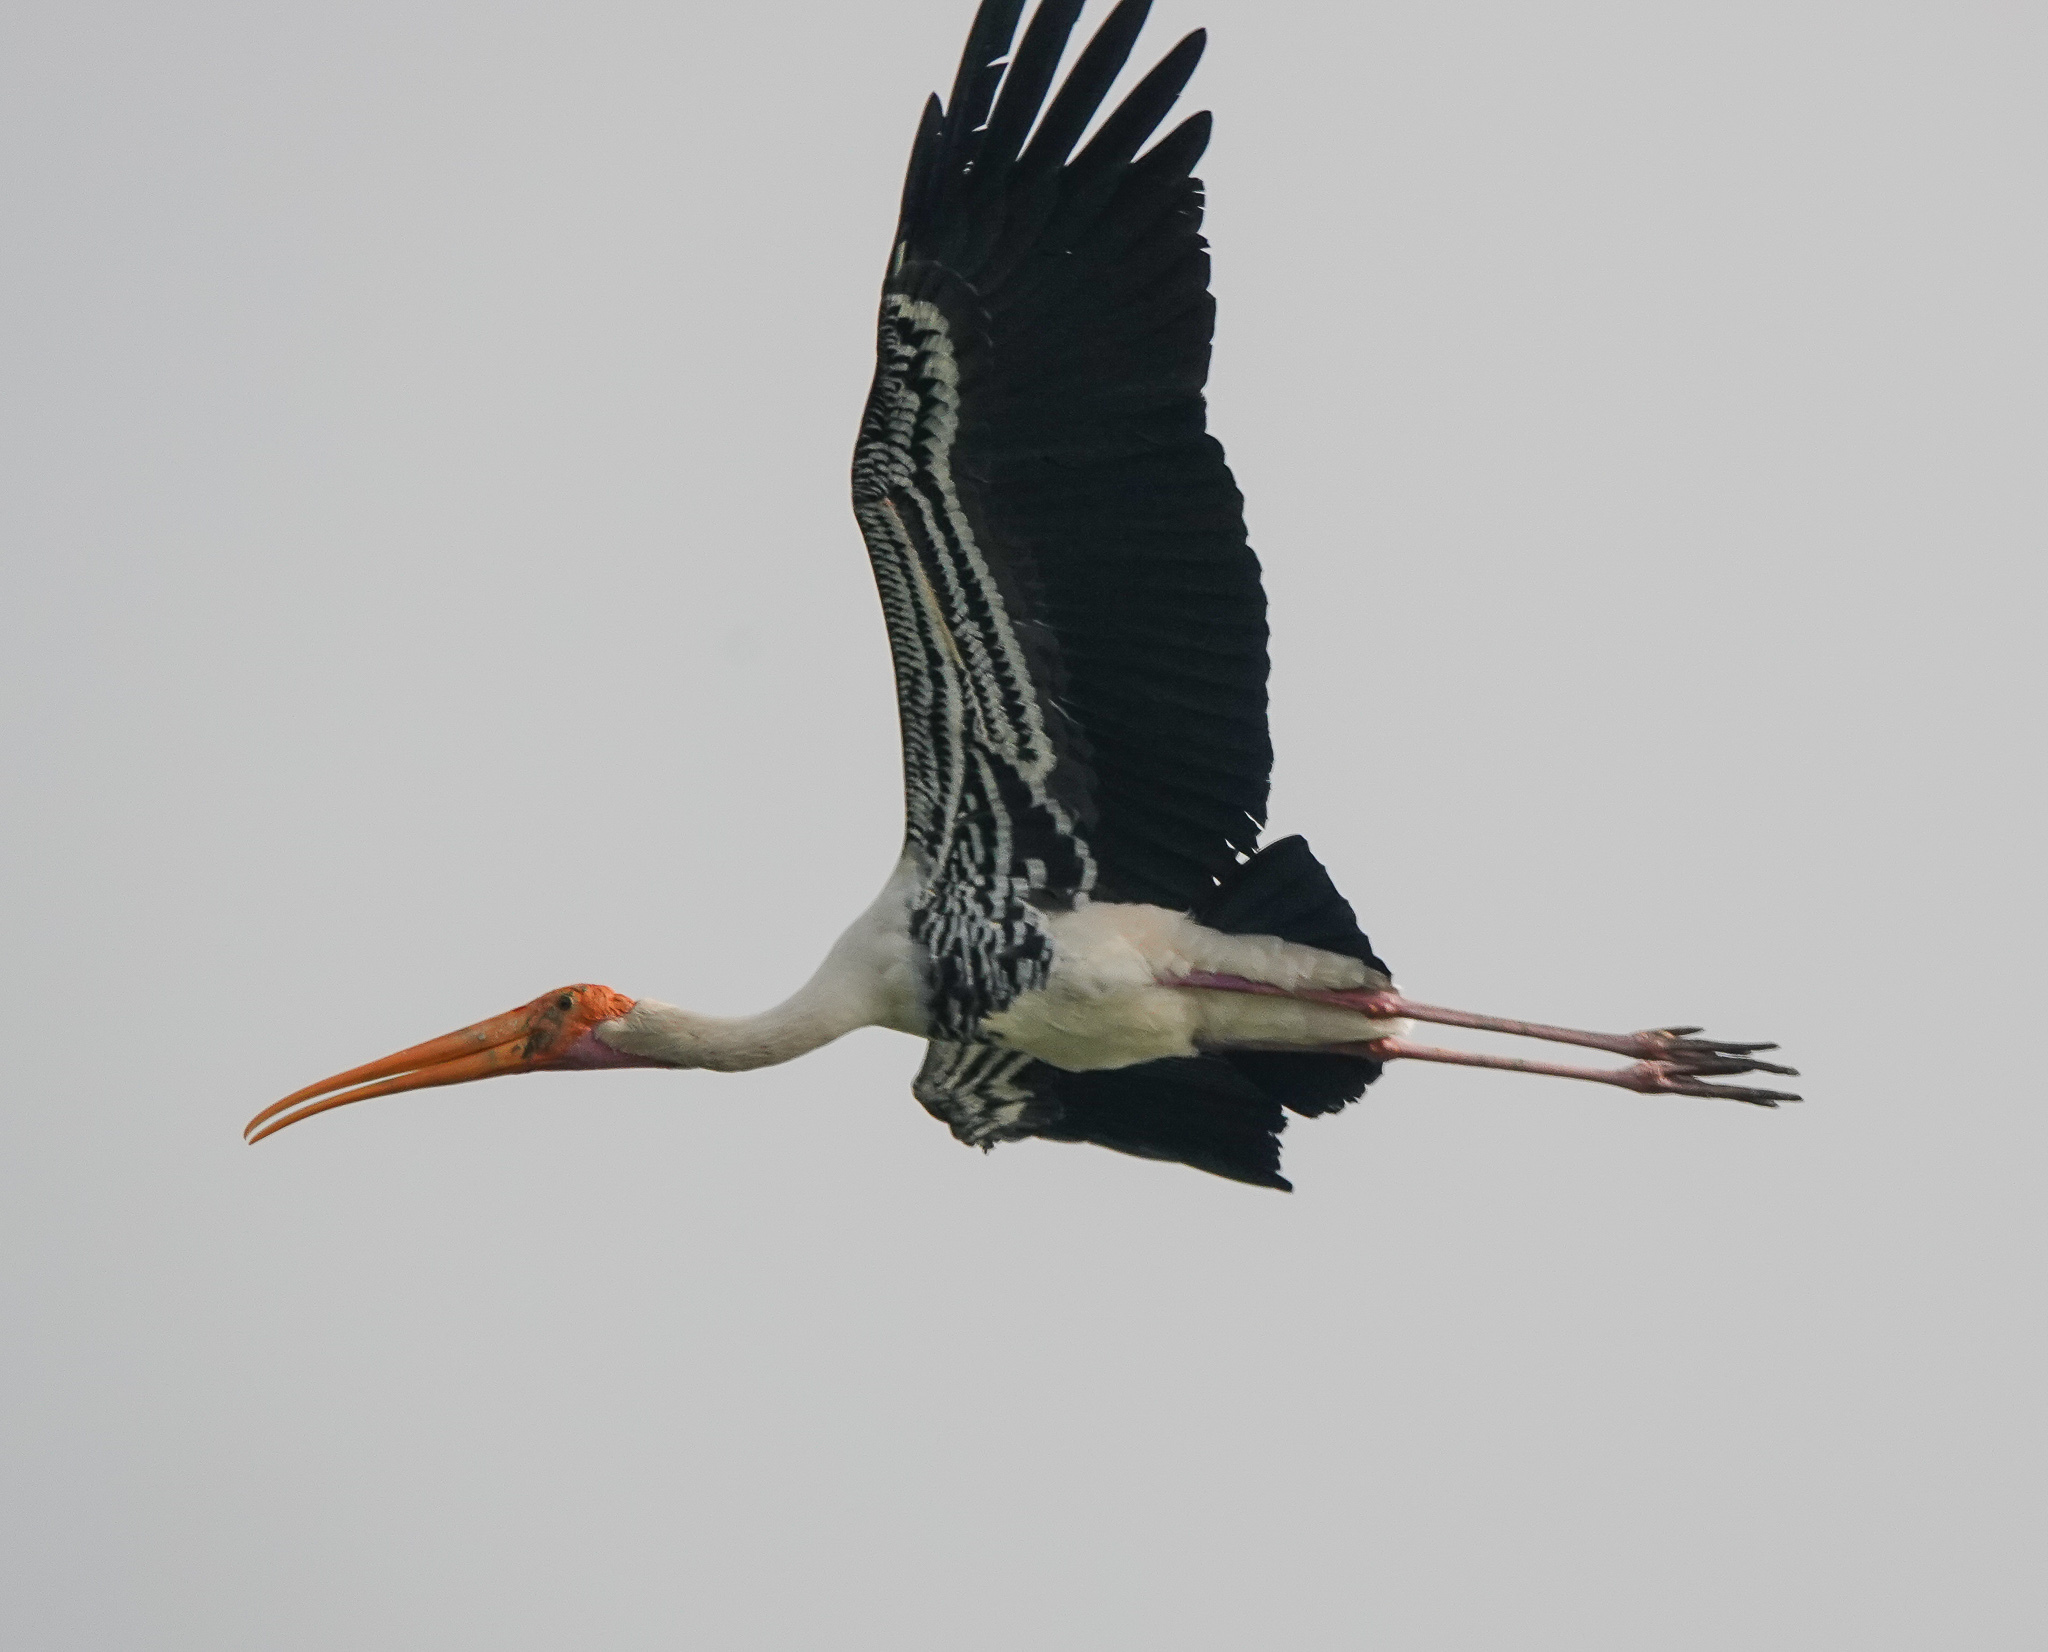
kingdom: Animalia
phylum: Chordata
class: Aves
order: Ciconiiformes
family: Ciconiidae
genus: Mycteria
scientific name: Mycteria leucocephala
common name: Painted stork
